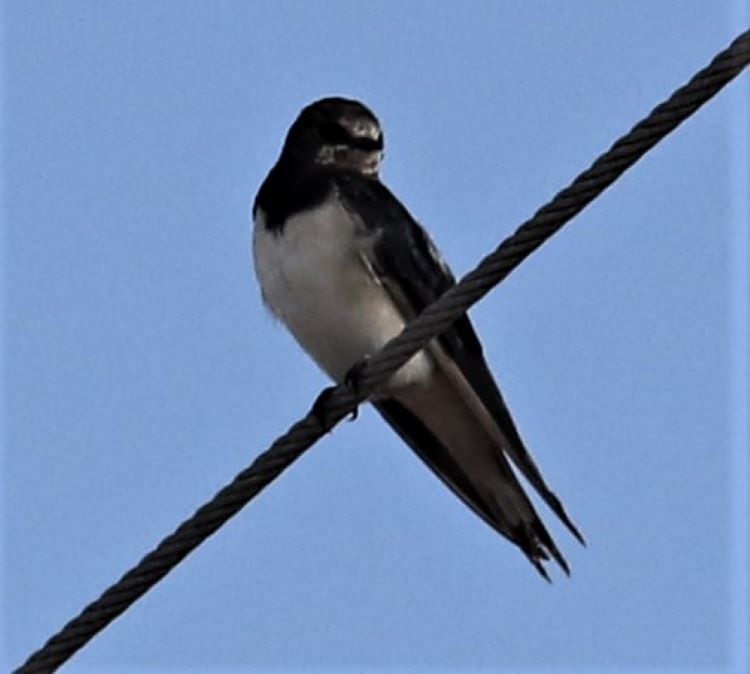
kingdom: Animalia
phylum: Chordata
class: Aves
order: Passeriformes
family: Hirundinidae
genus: Hirundo
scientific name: Hirundo rustica
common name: Barn swallow
